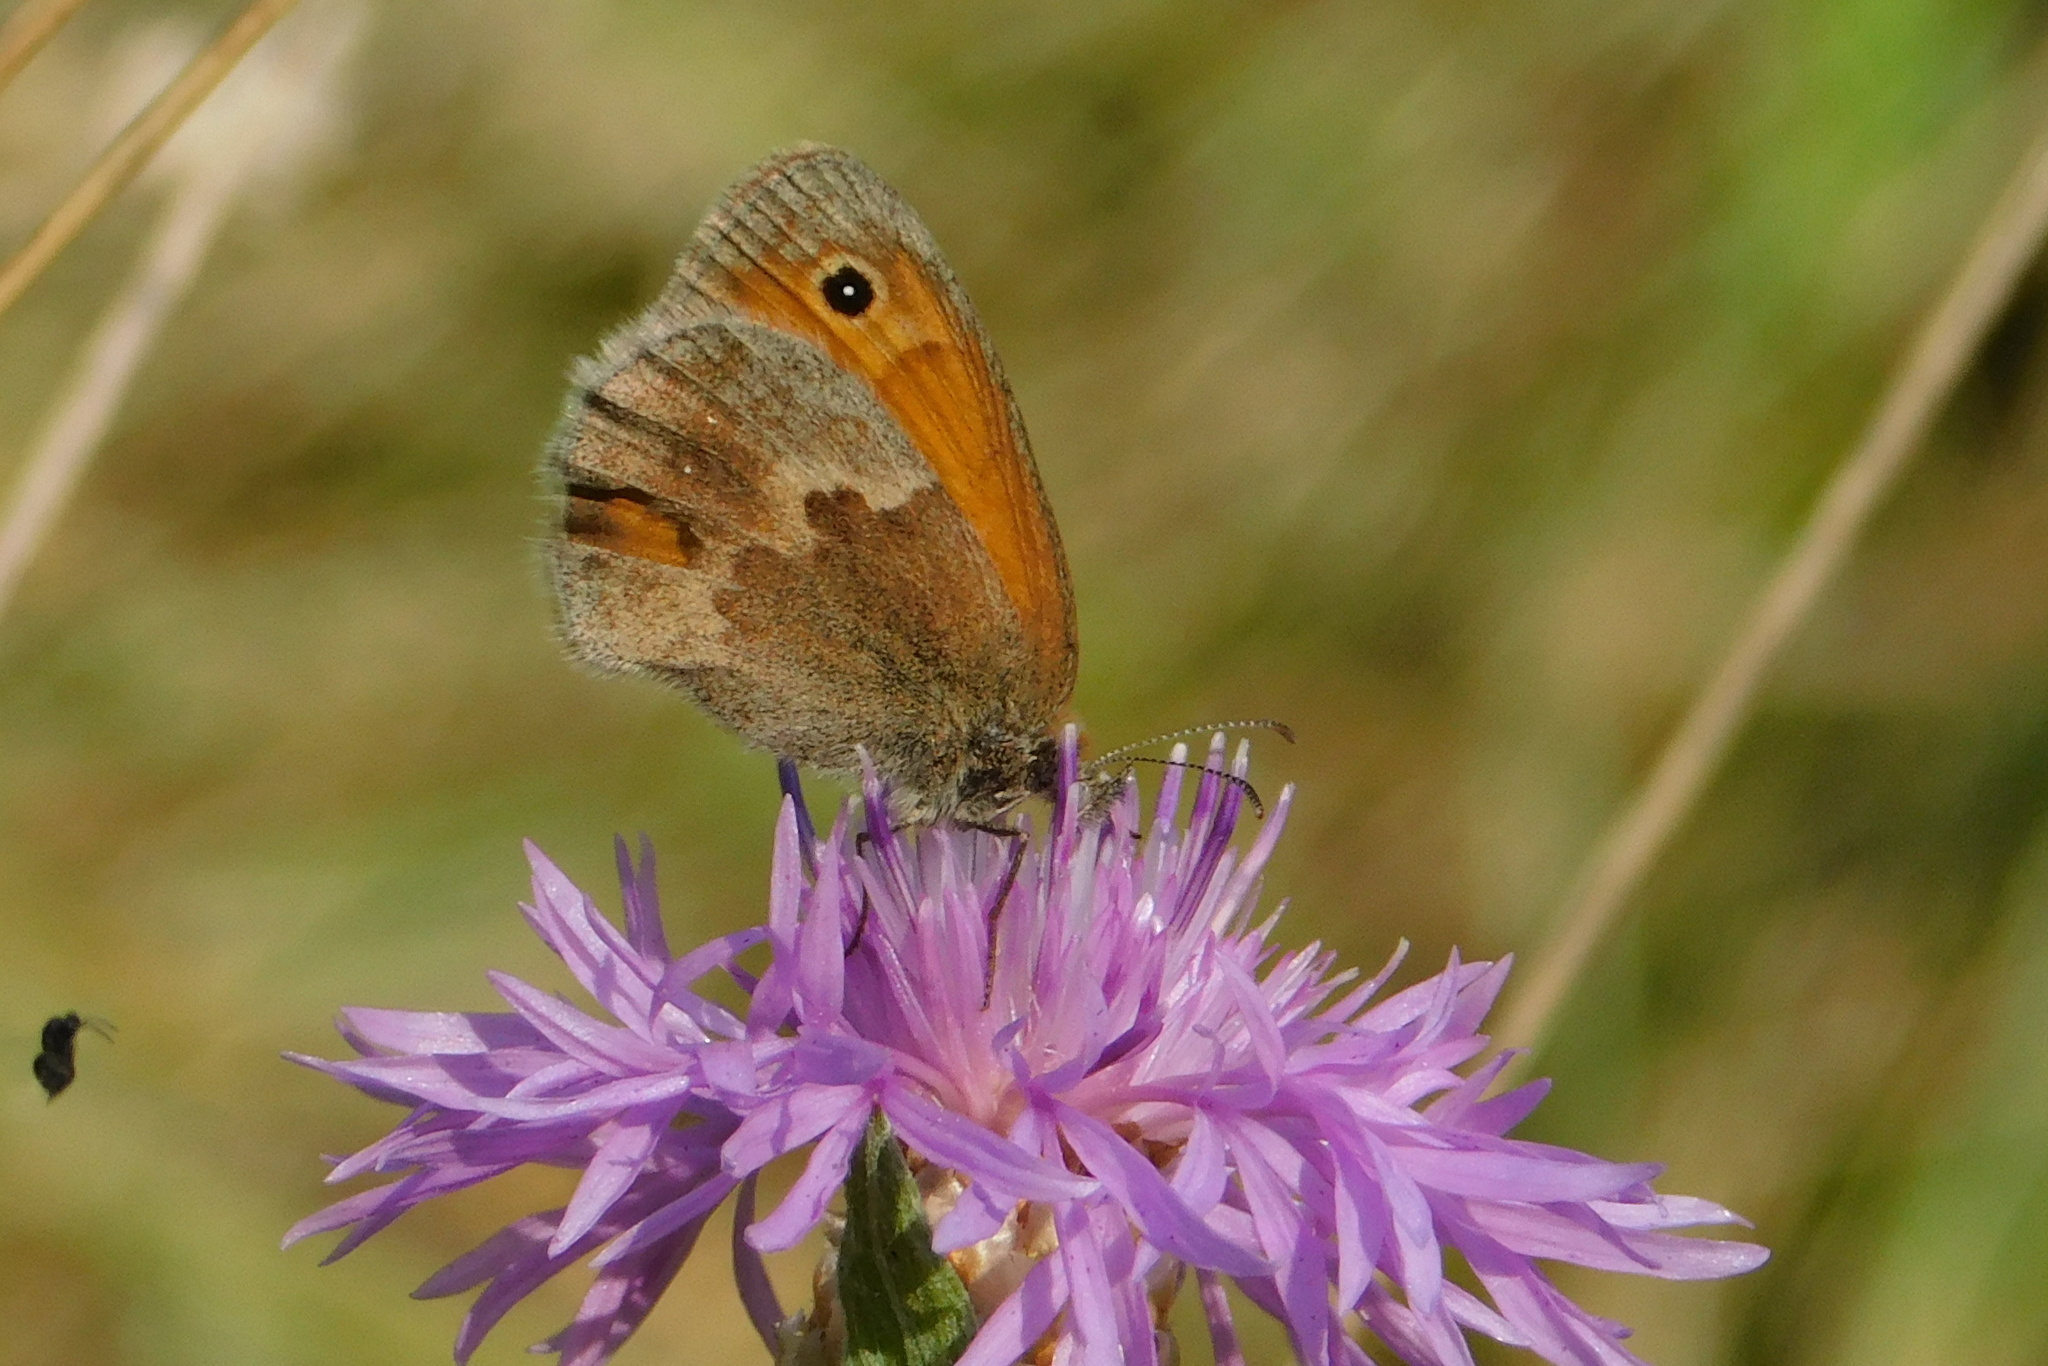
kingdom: Animalia
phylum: Arthropoda
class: Insecta
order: Lepidoptera
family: Nymphalidae
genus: Coenonympha
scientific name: Coenonympha pamphilus
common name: Small heath
